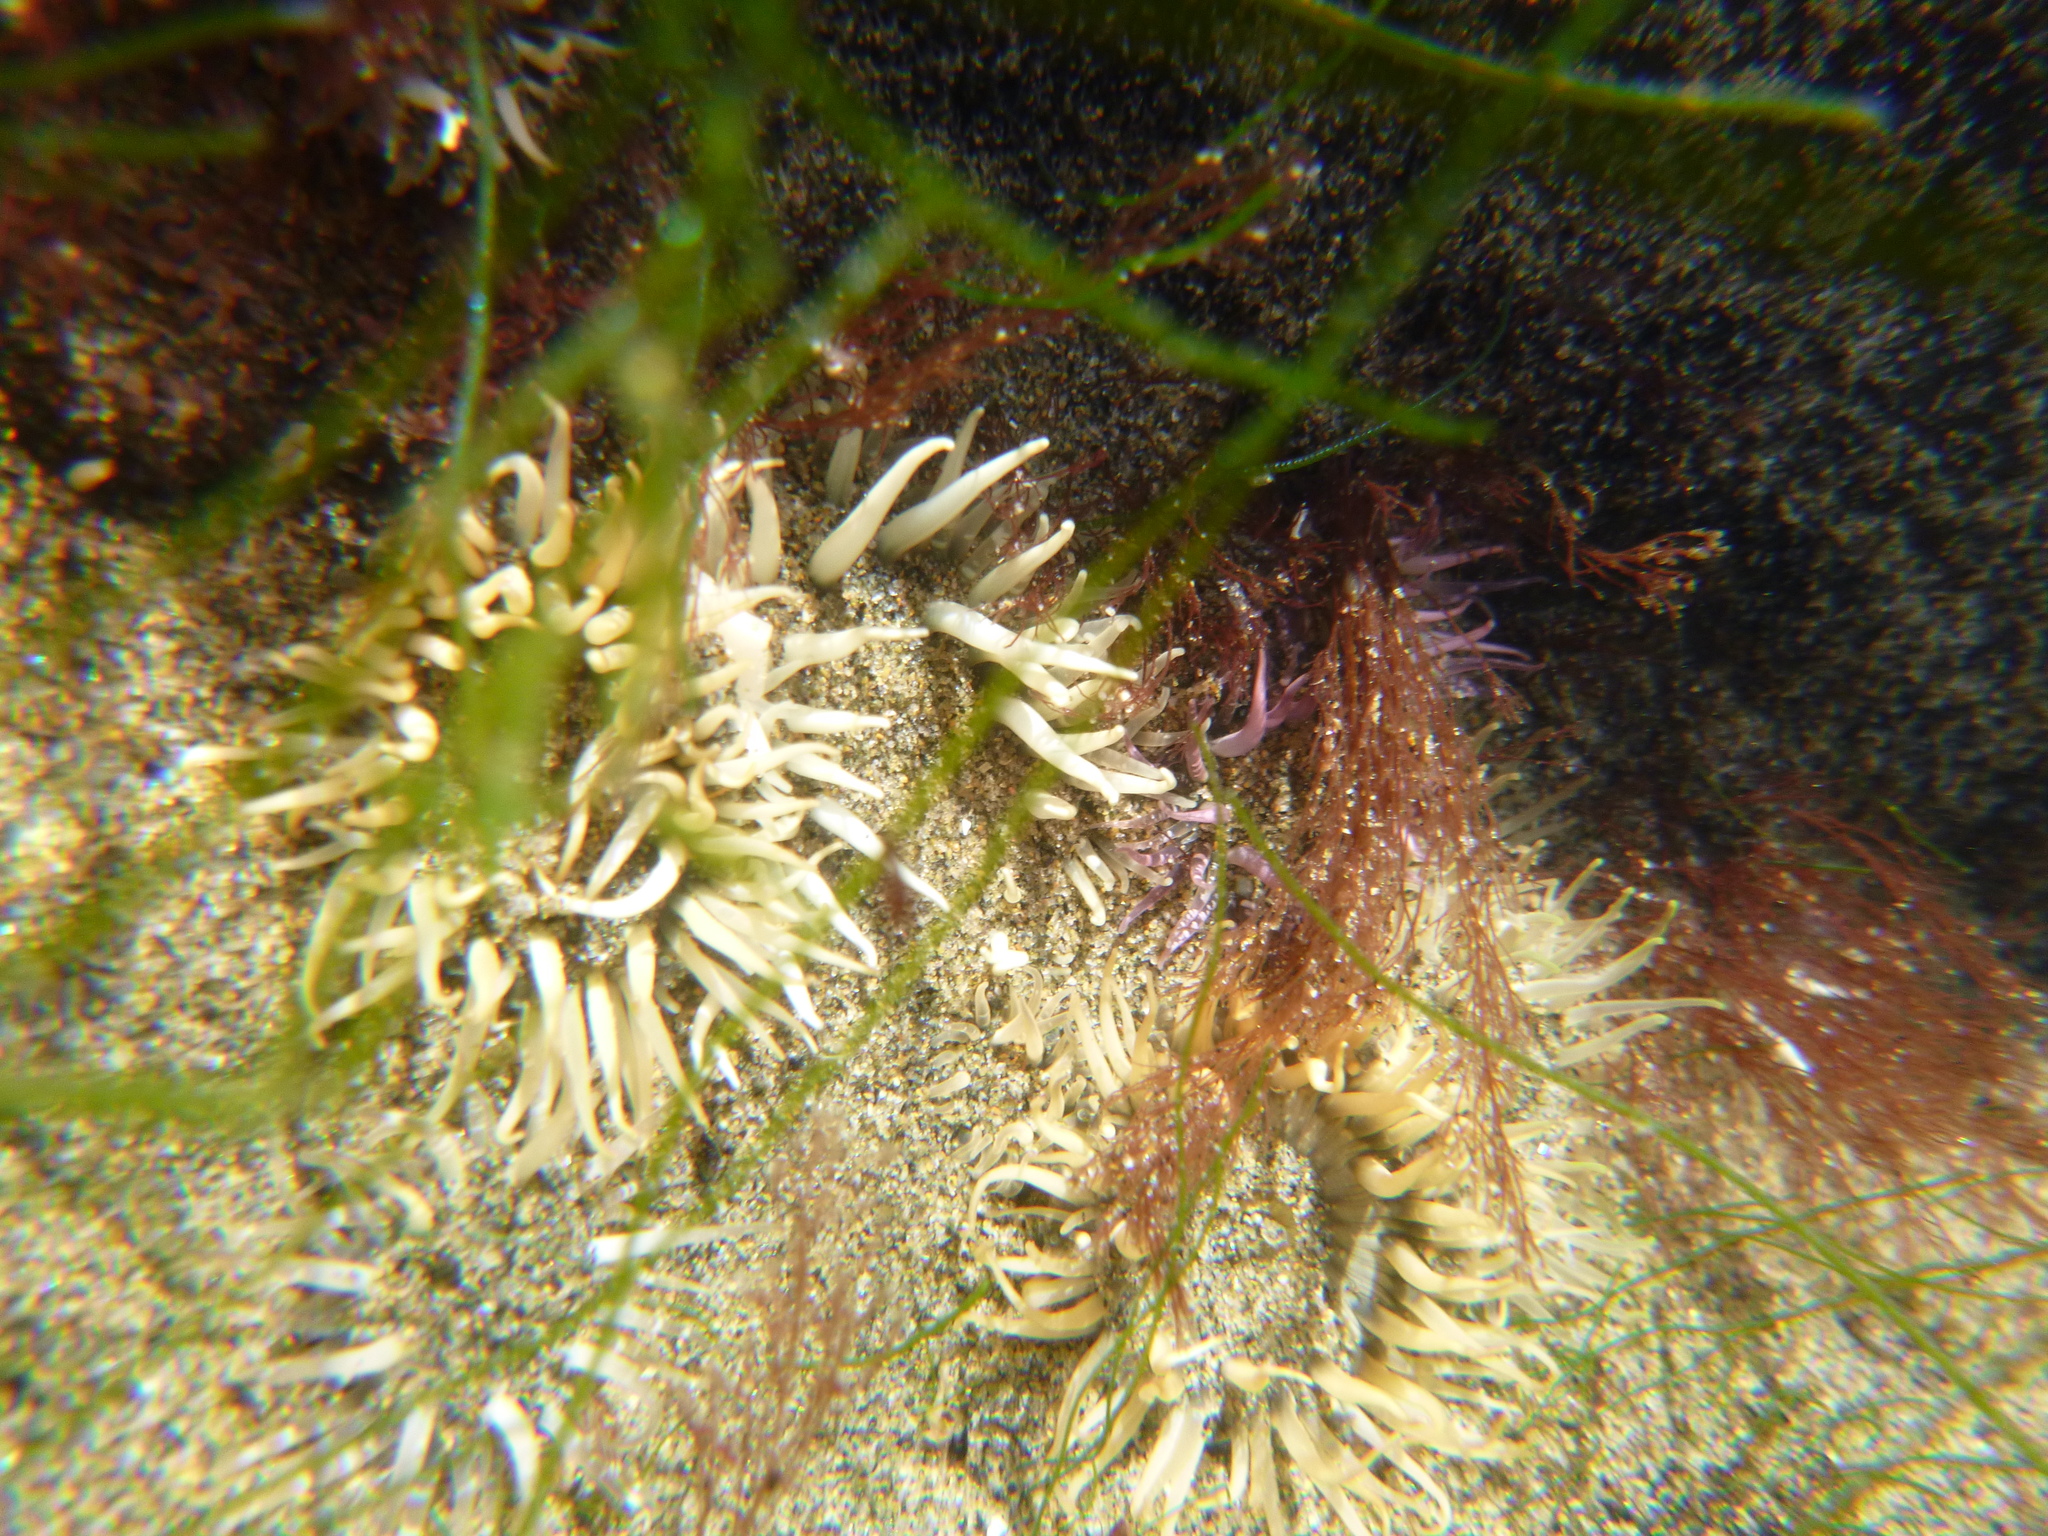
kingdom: Animalia
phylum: Cnidaria
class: Anthozoa
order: Actiniaria
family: Actiniidae
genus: Oulactis
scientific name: Oulactis magna
